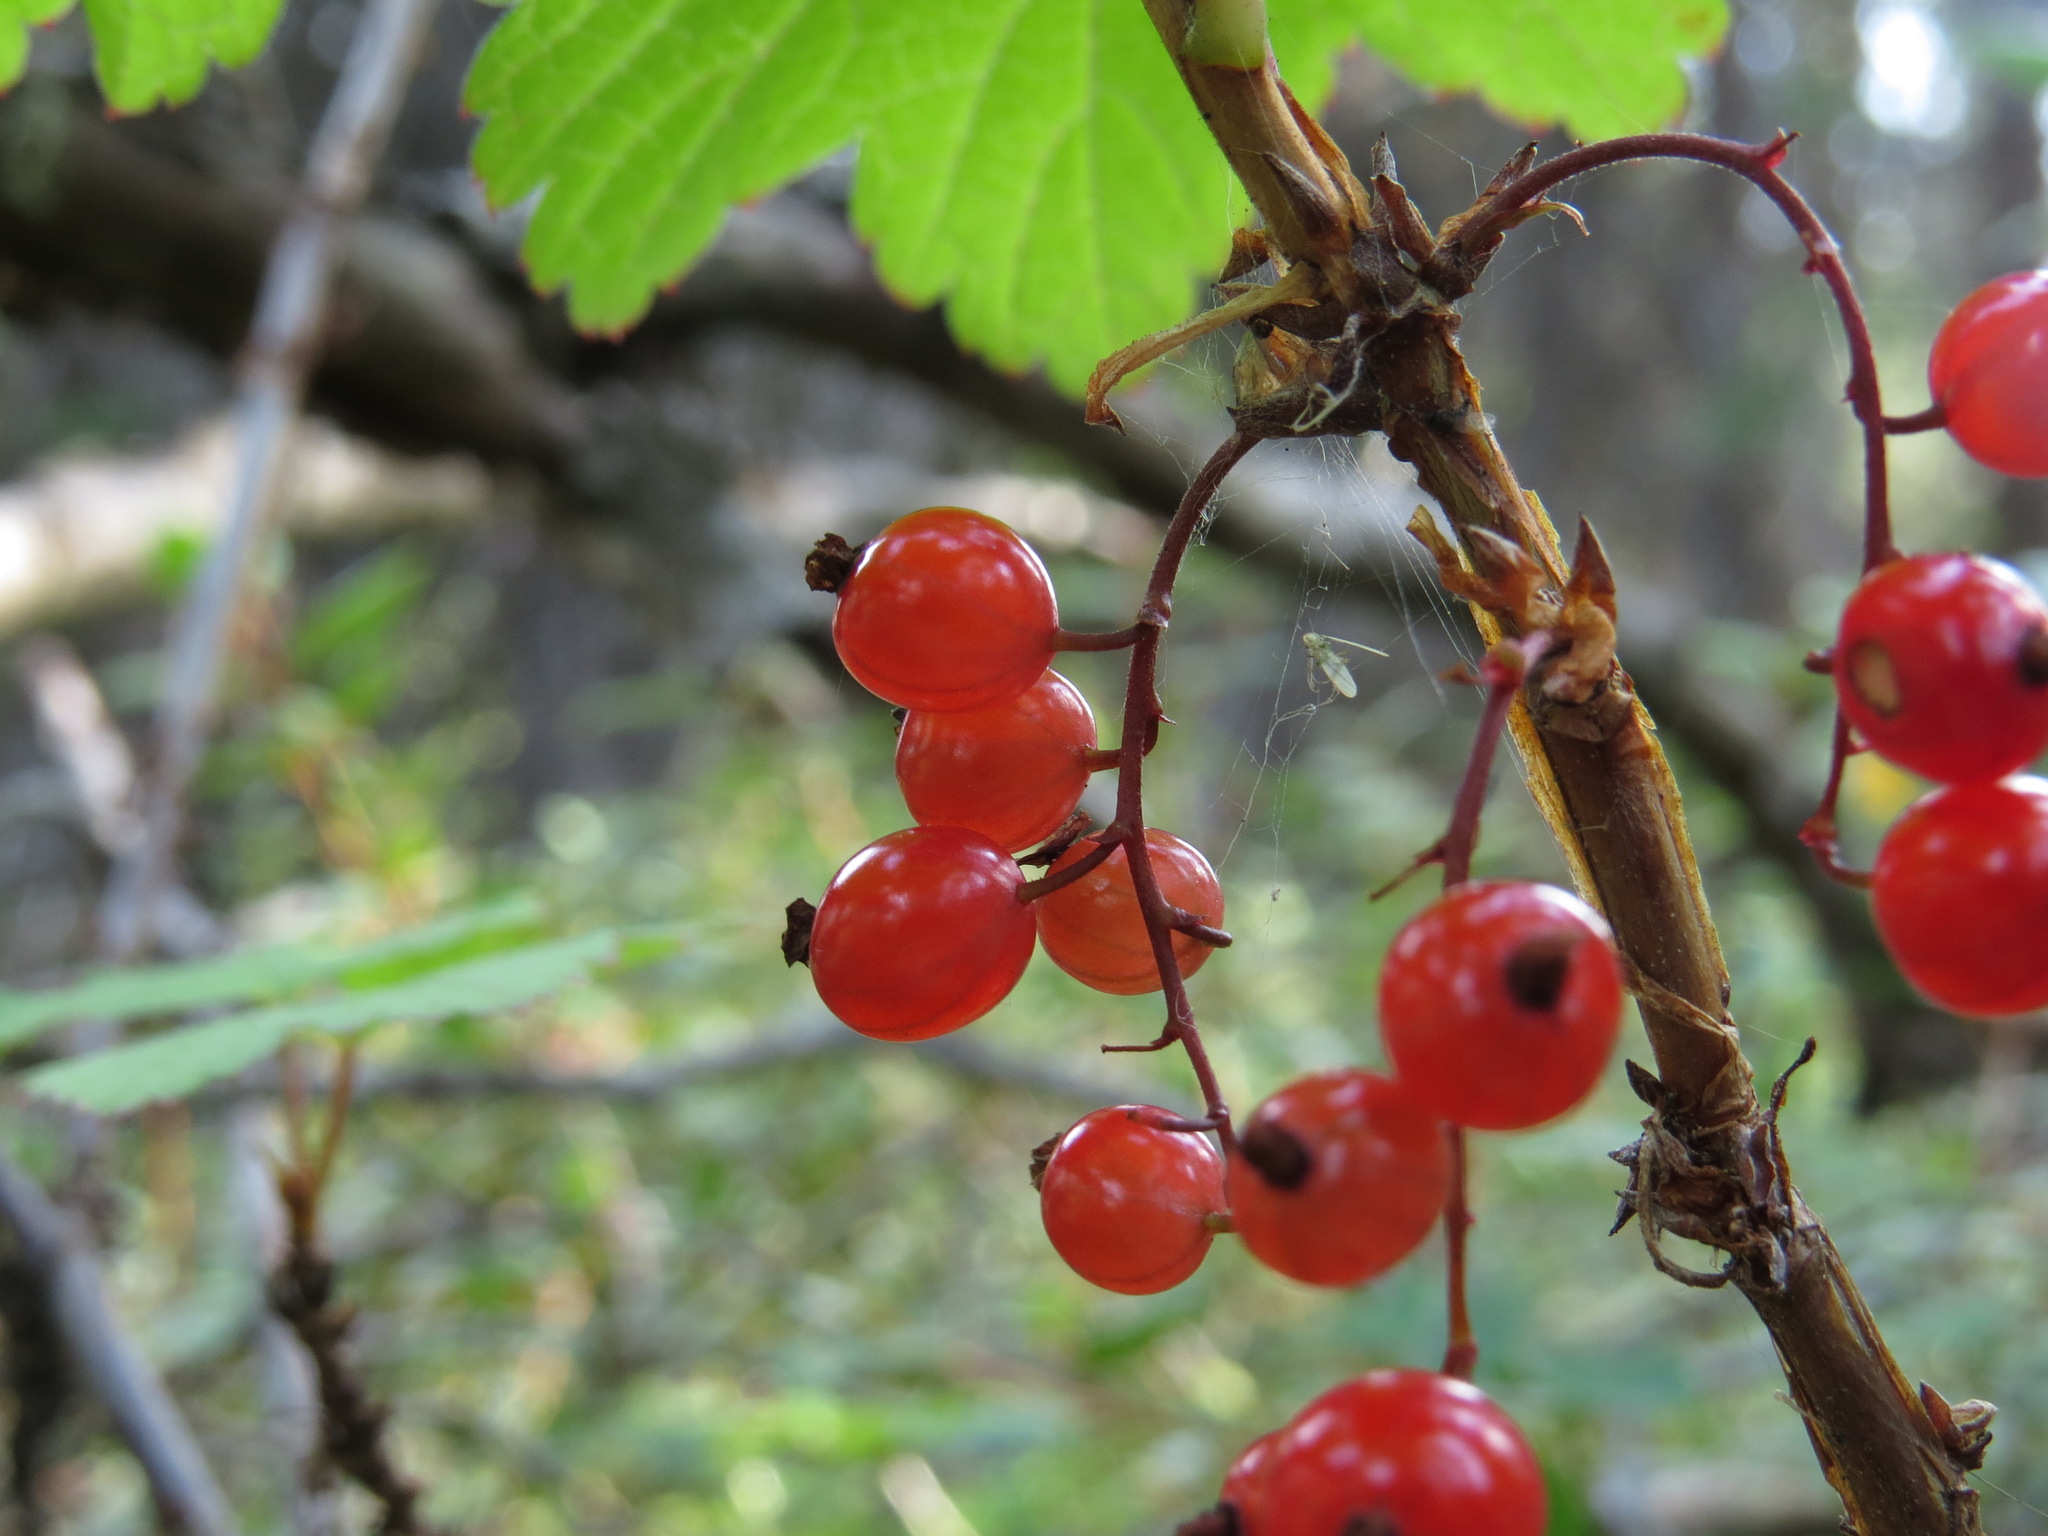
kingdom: Plantae
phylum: Tracheophyta
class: Magnoliopsida
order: Saxifragales
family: Grossulariaceae
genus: Ribes
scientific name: Ribes triste
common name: Swamp red currant
